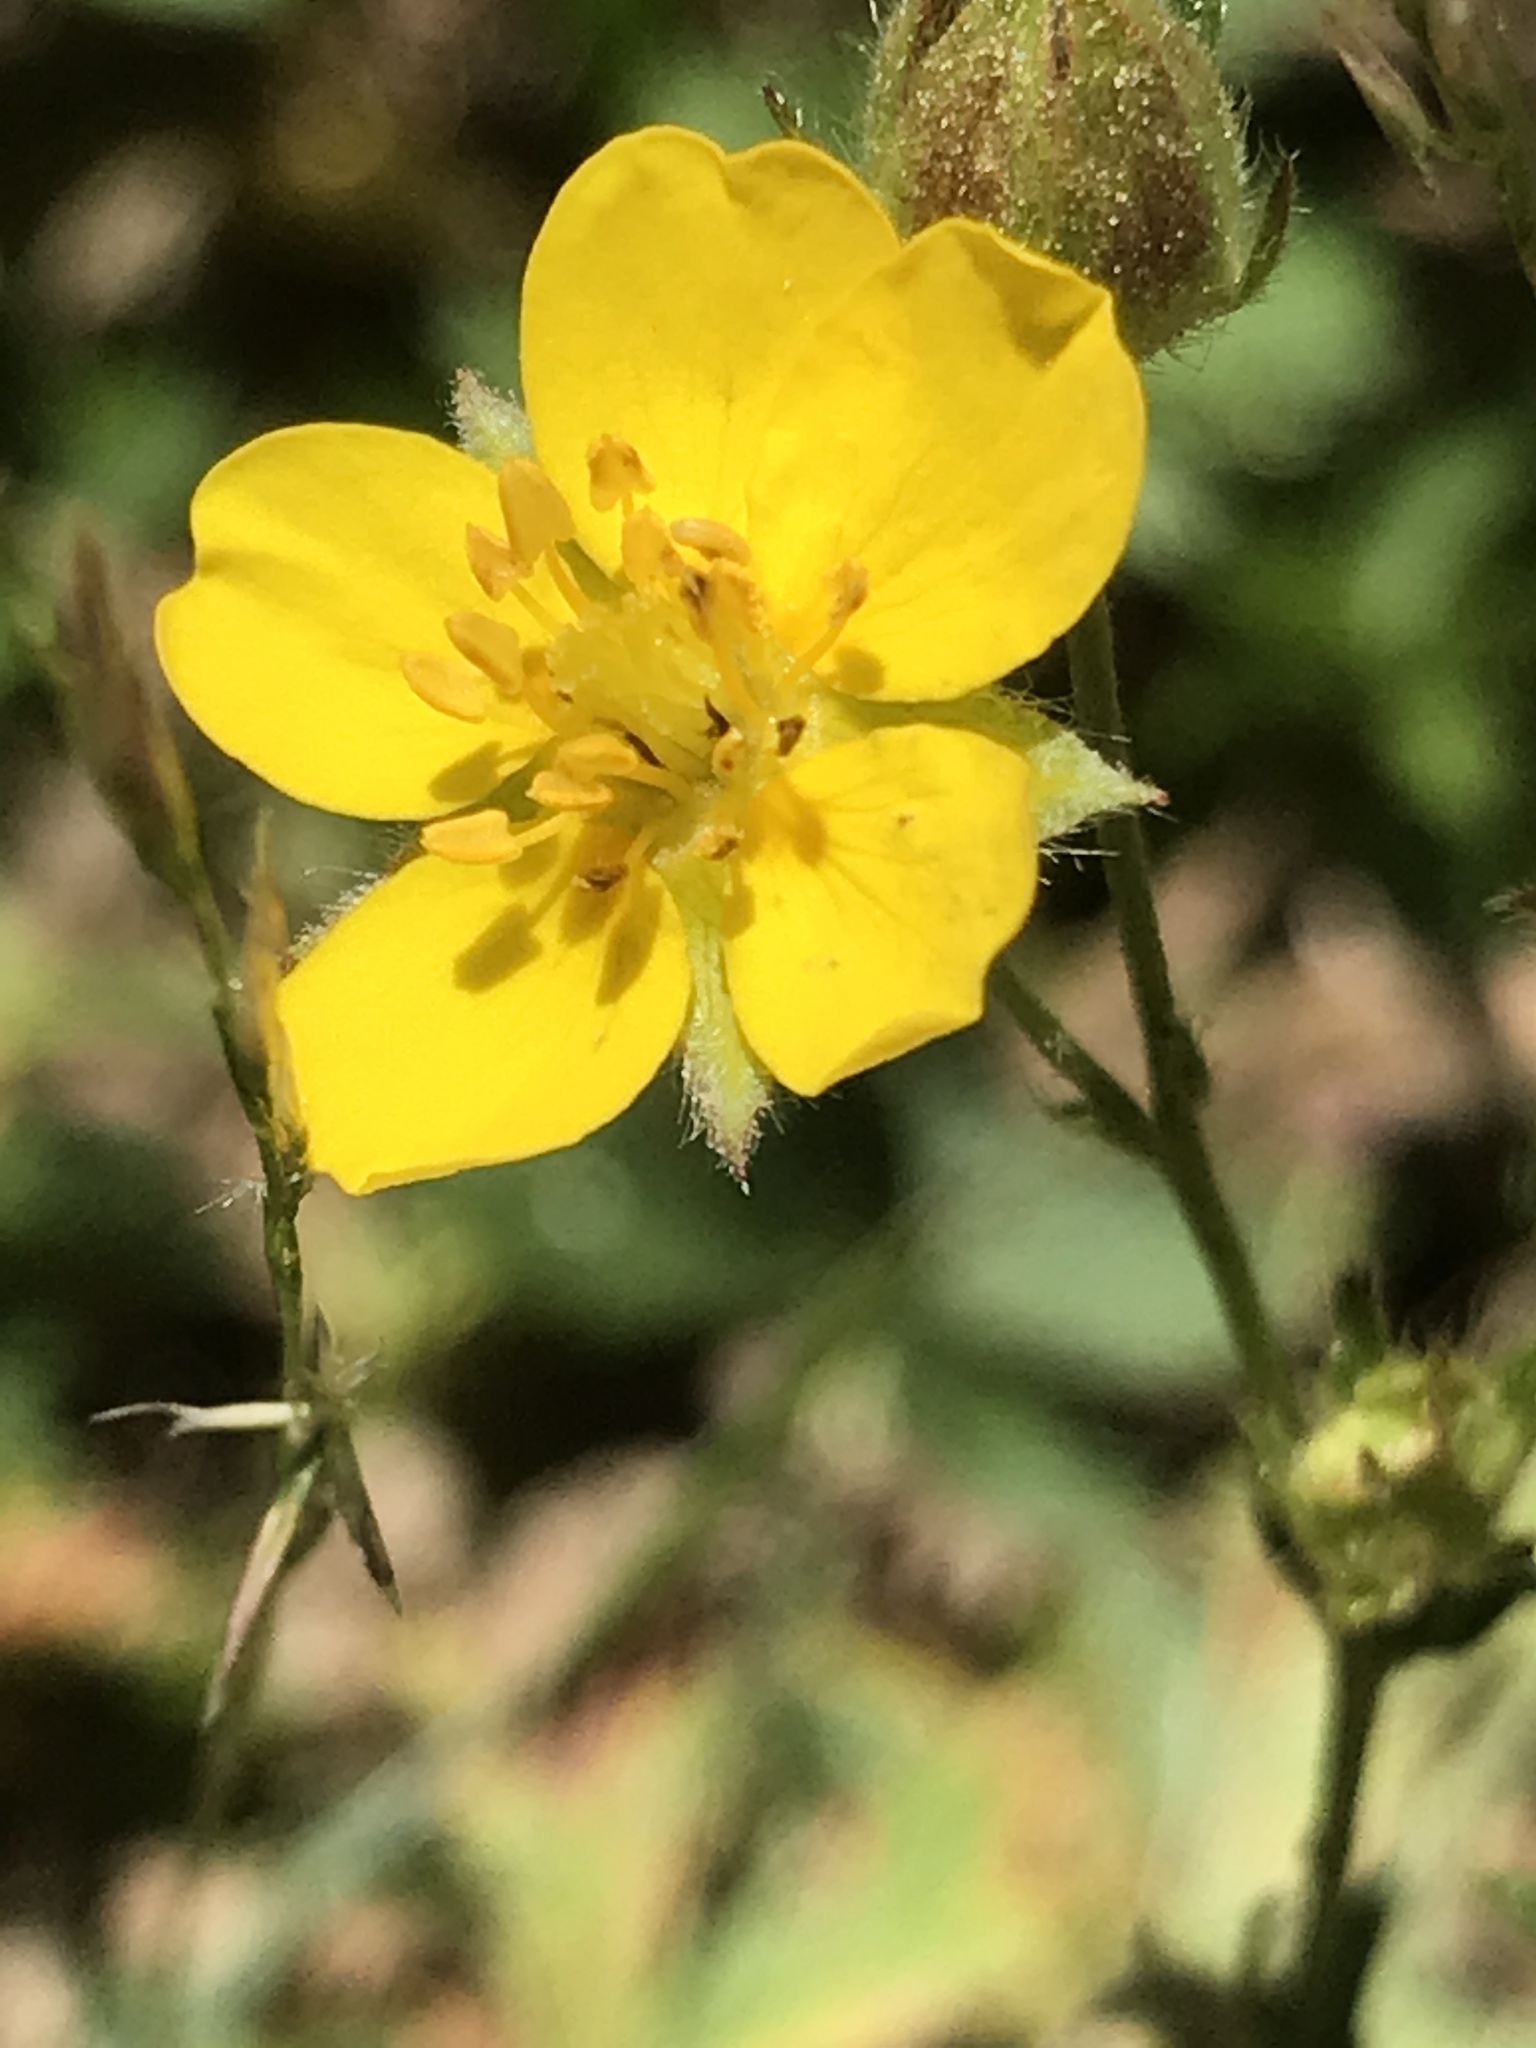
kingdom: Plantae
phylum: Tracheophyta
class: Magnoliopsida
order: Rosales
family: Rosaceae
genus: Potentilla
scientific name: Potentilla gracilis
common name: Graceful cinquefoil
